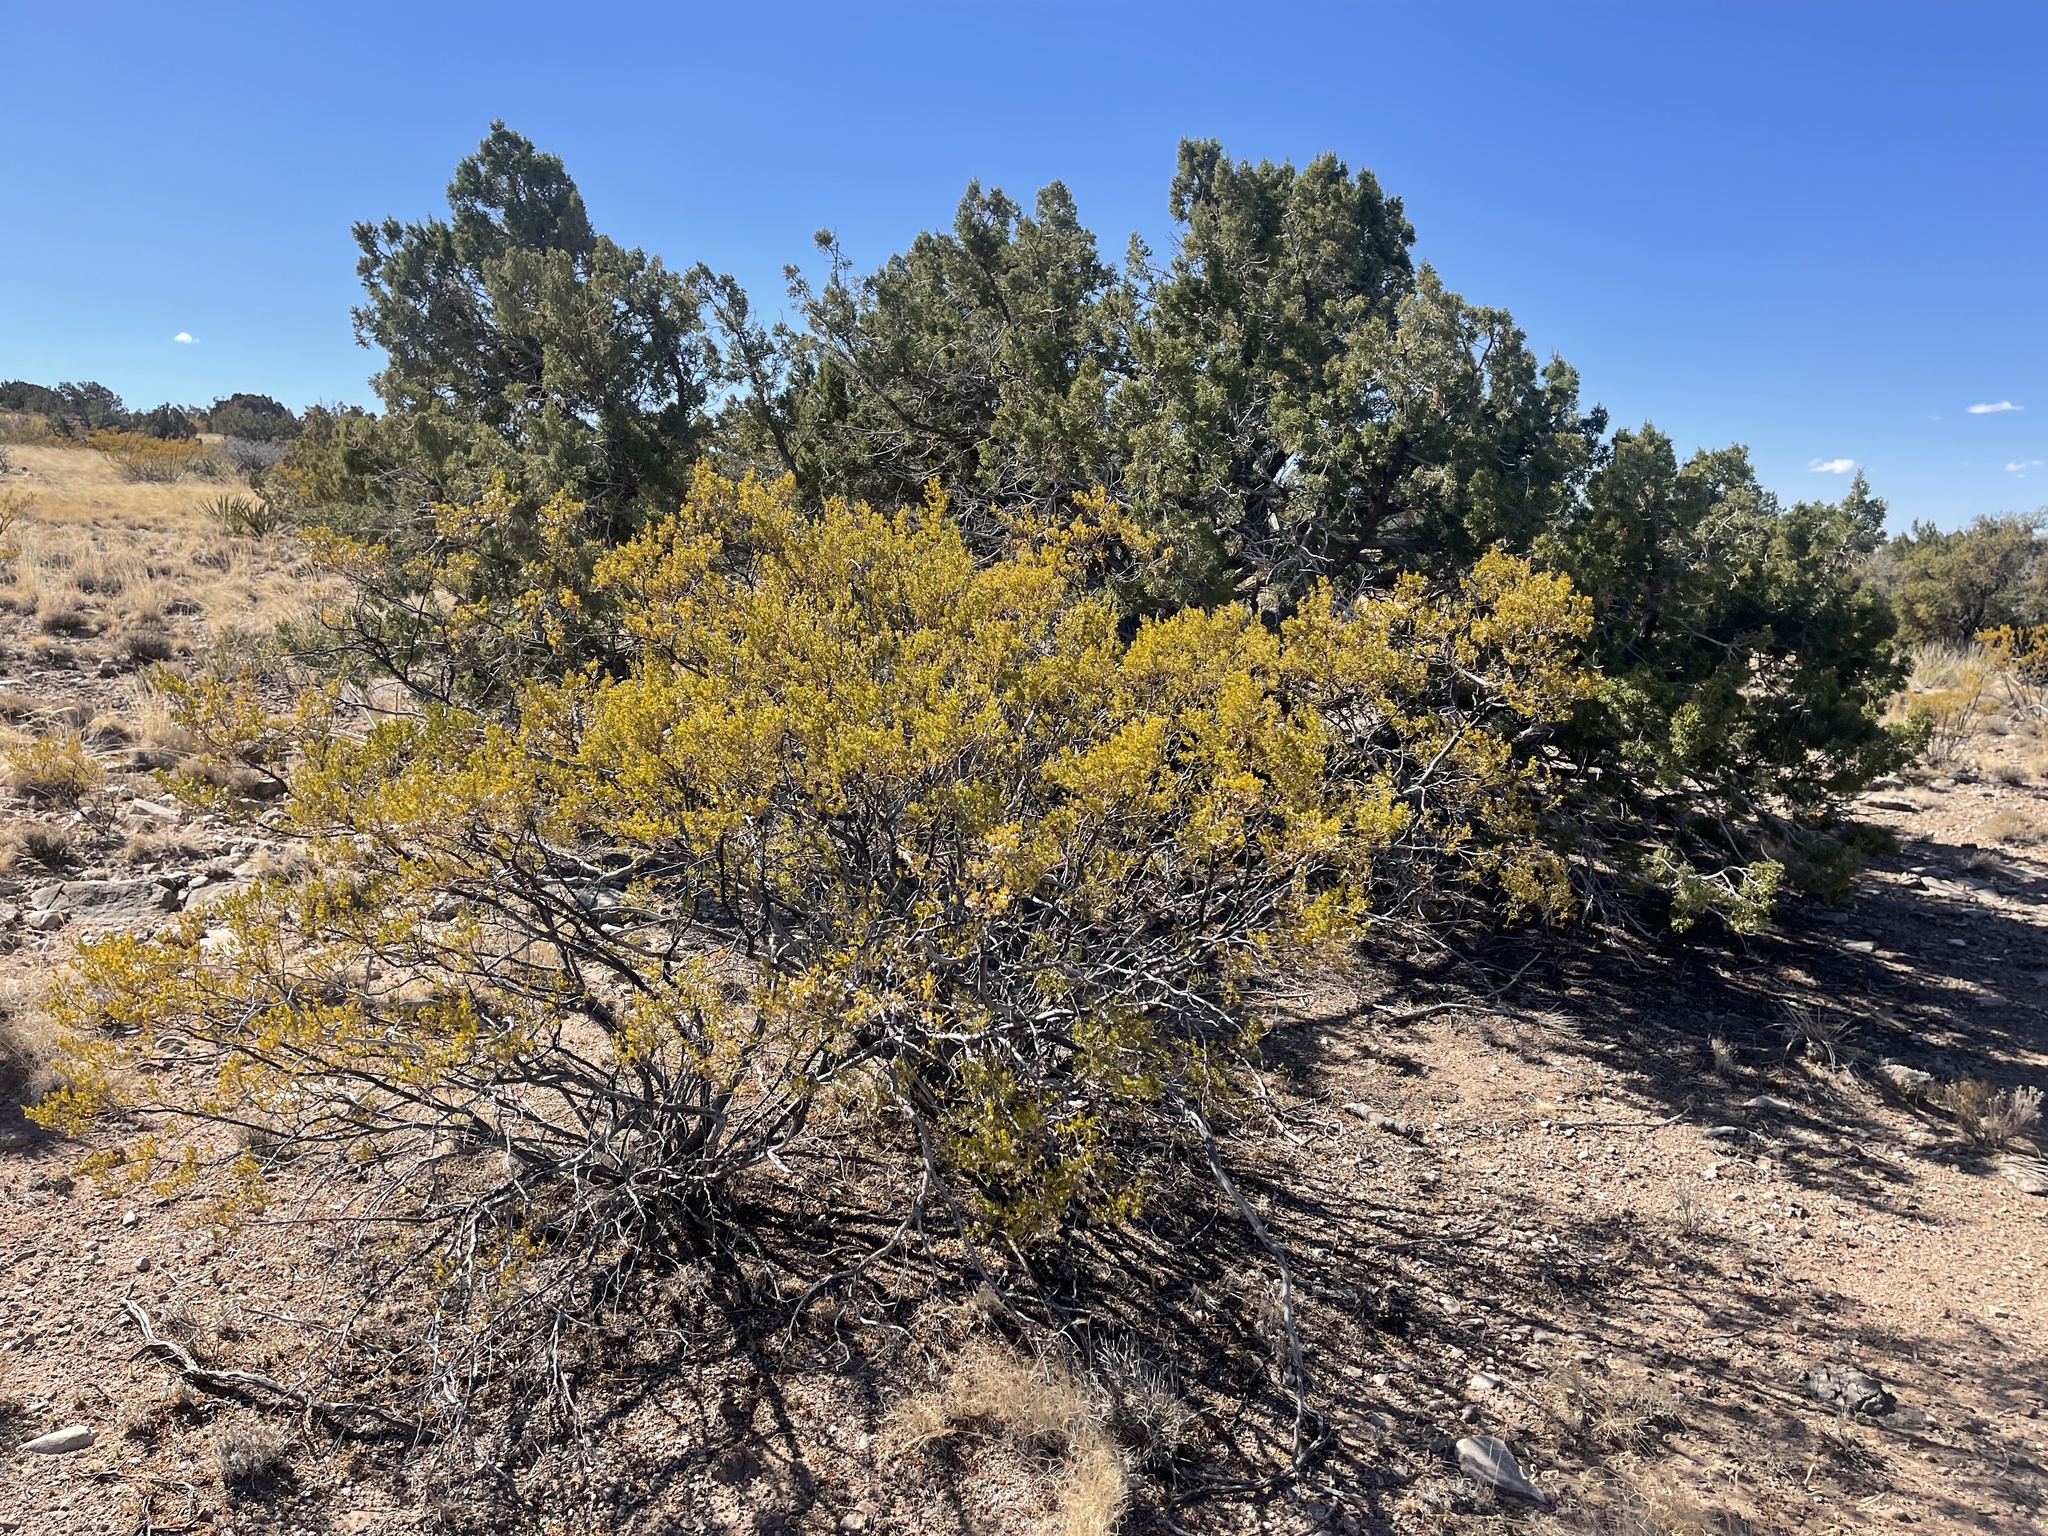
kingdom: Plantae
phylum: Tracheophyta
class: Magnoliopsida
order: Zygophyllales
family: Zygophyllaceae
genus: Larrea
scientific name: Larrea tridentata
